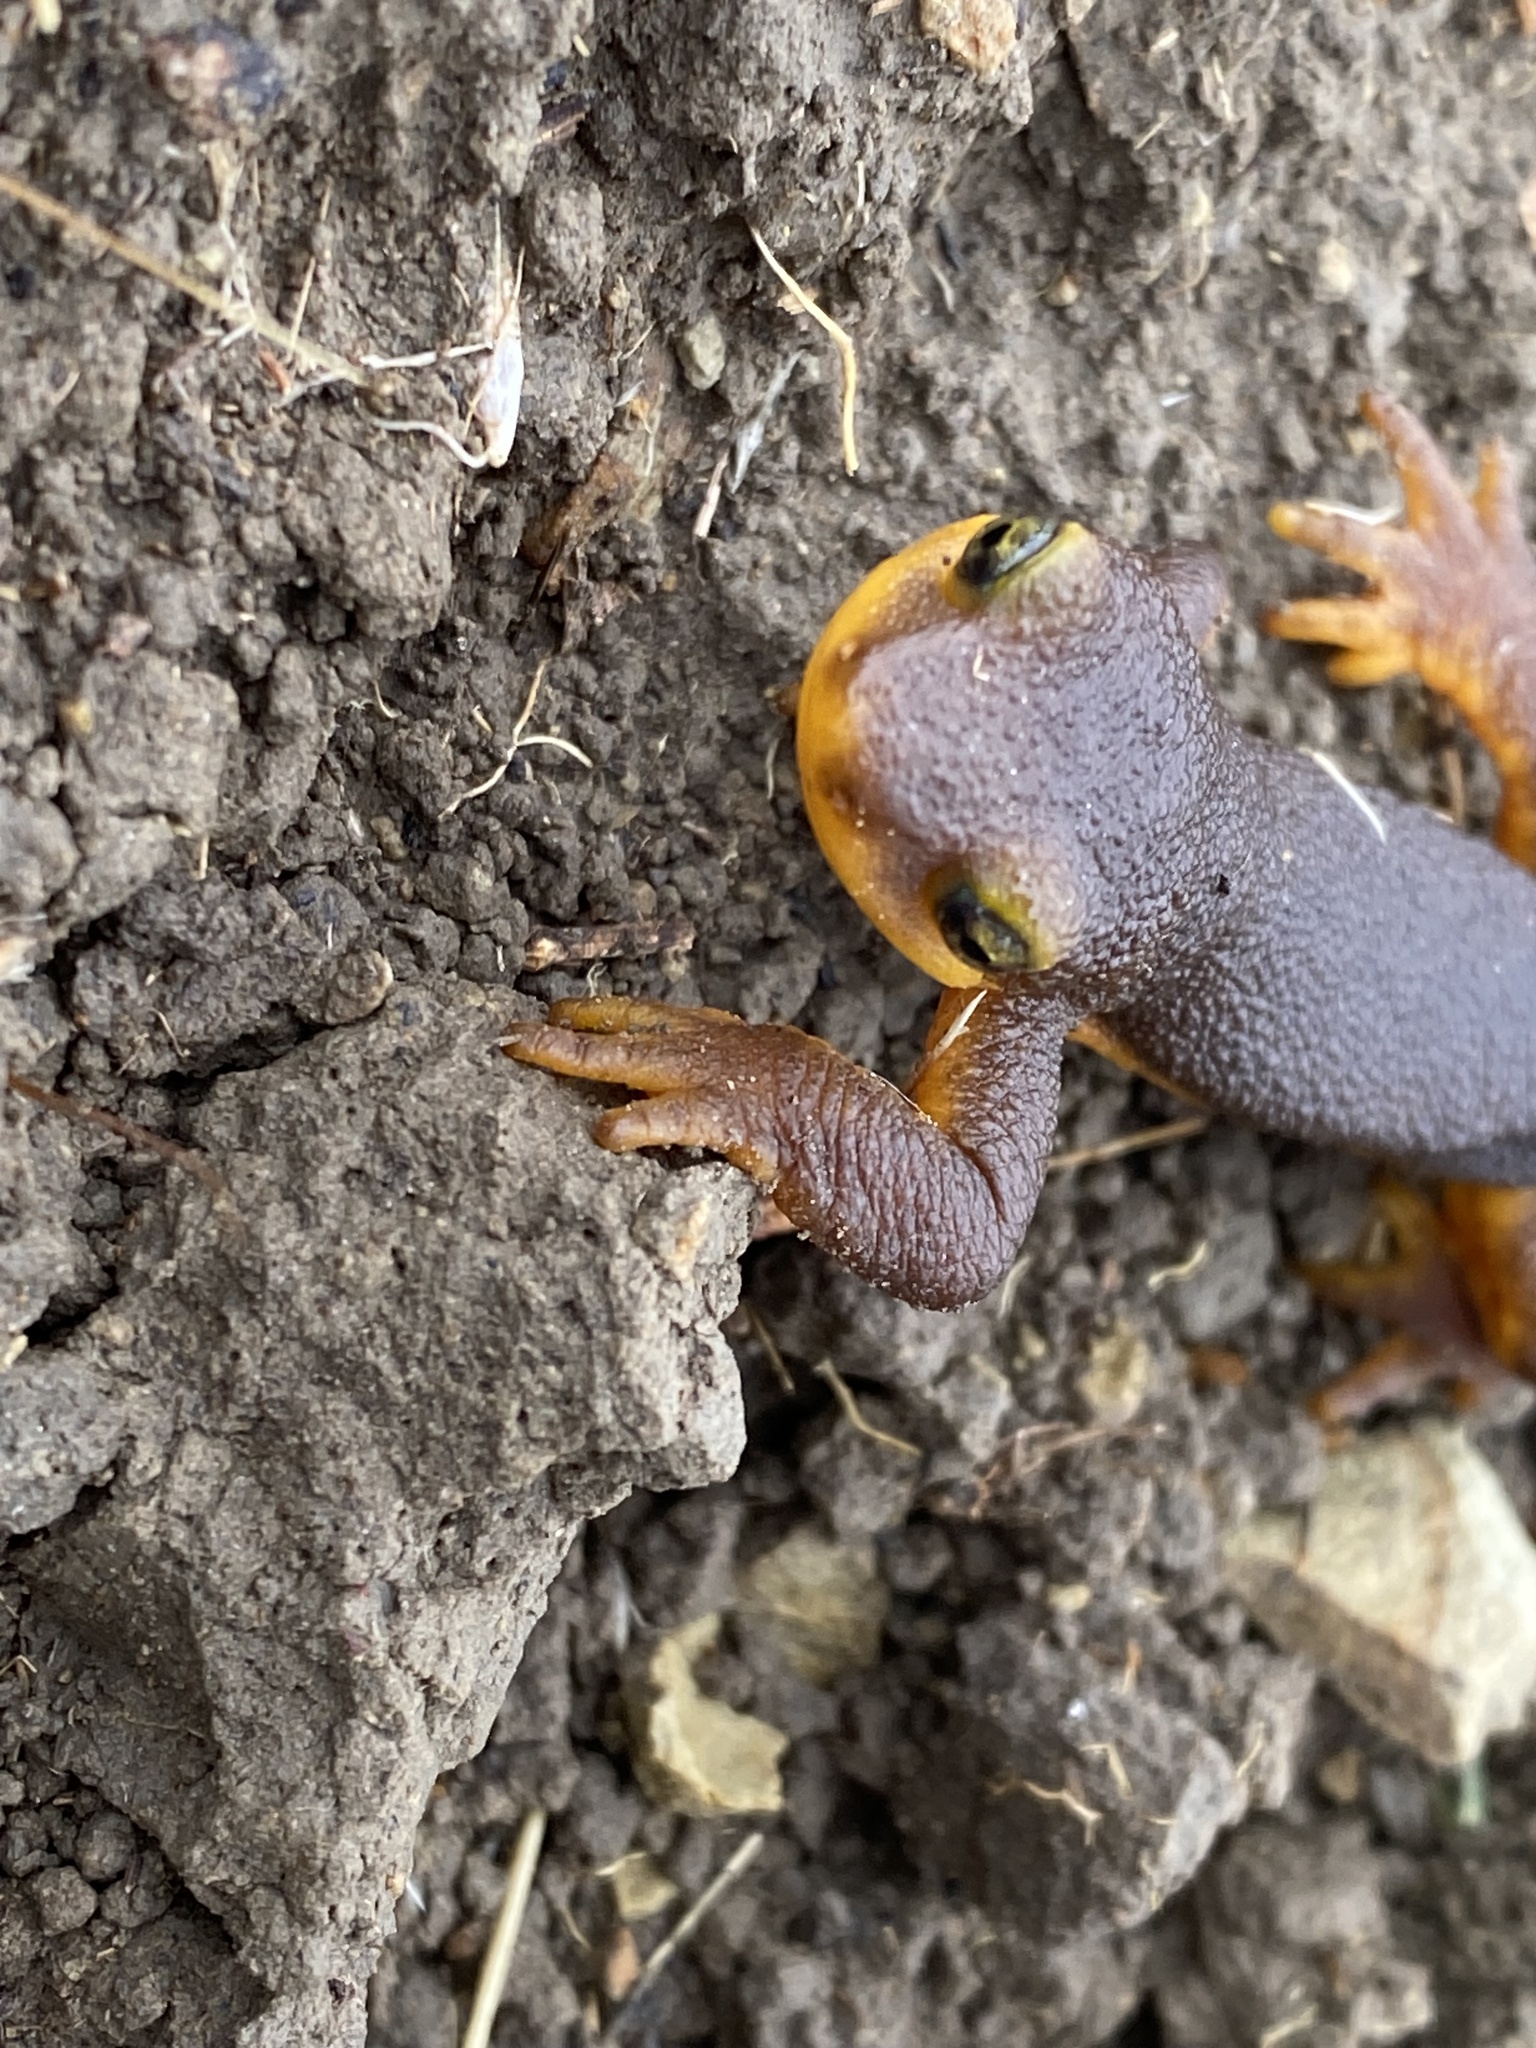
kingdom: Animalia
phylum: Chordata
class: Amphibia
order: Caudata
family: Salamandridae
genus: Taricha
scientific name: Taricha torosa
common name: California newt
